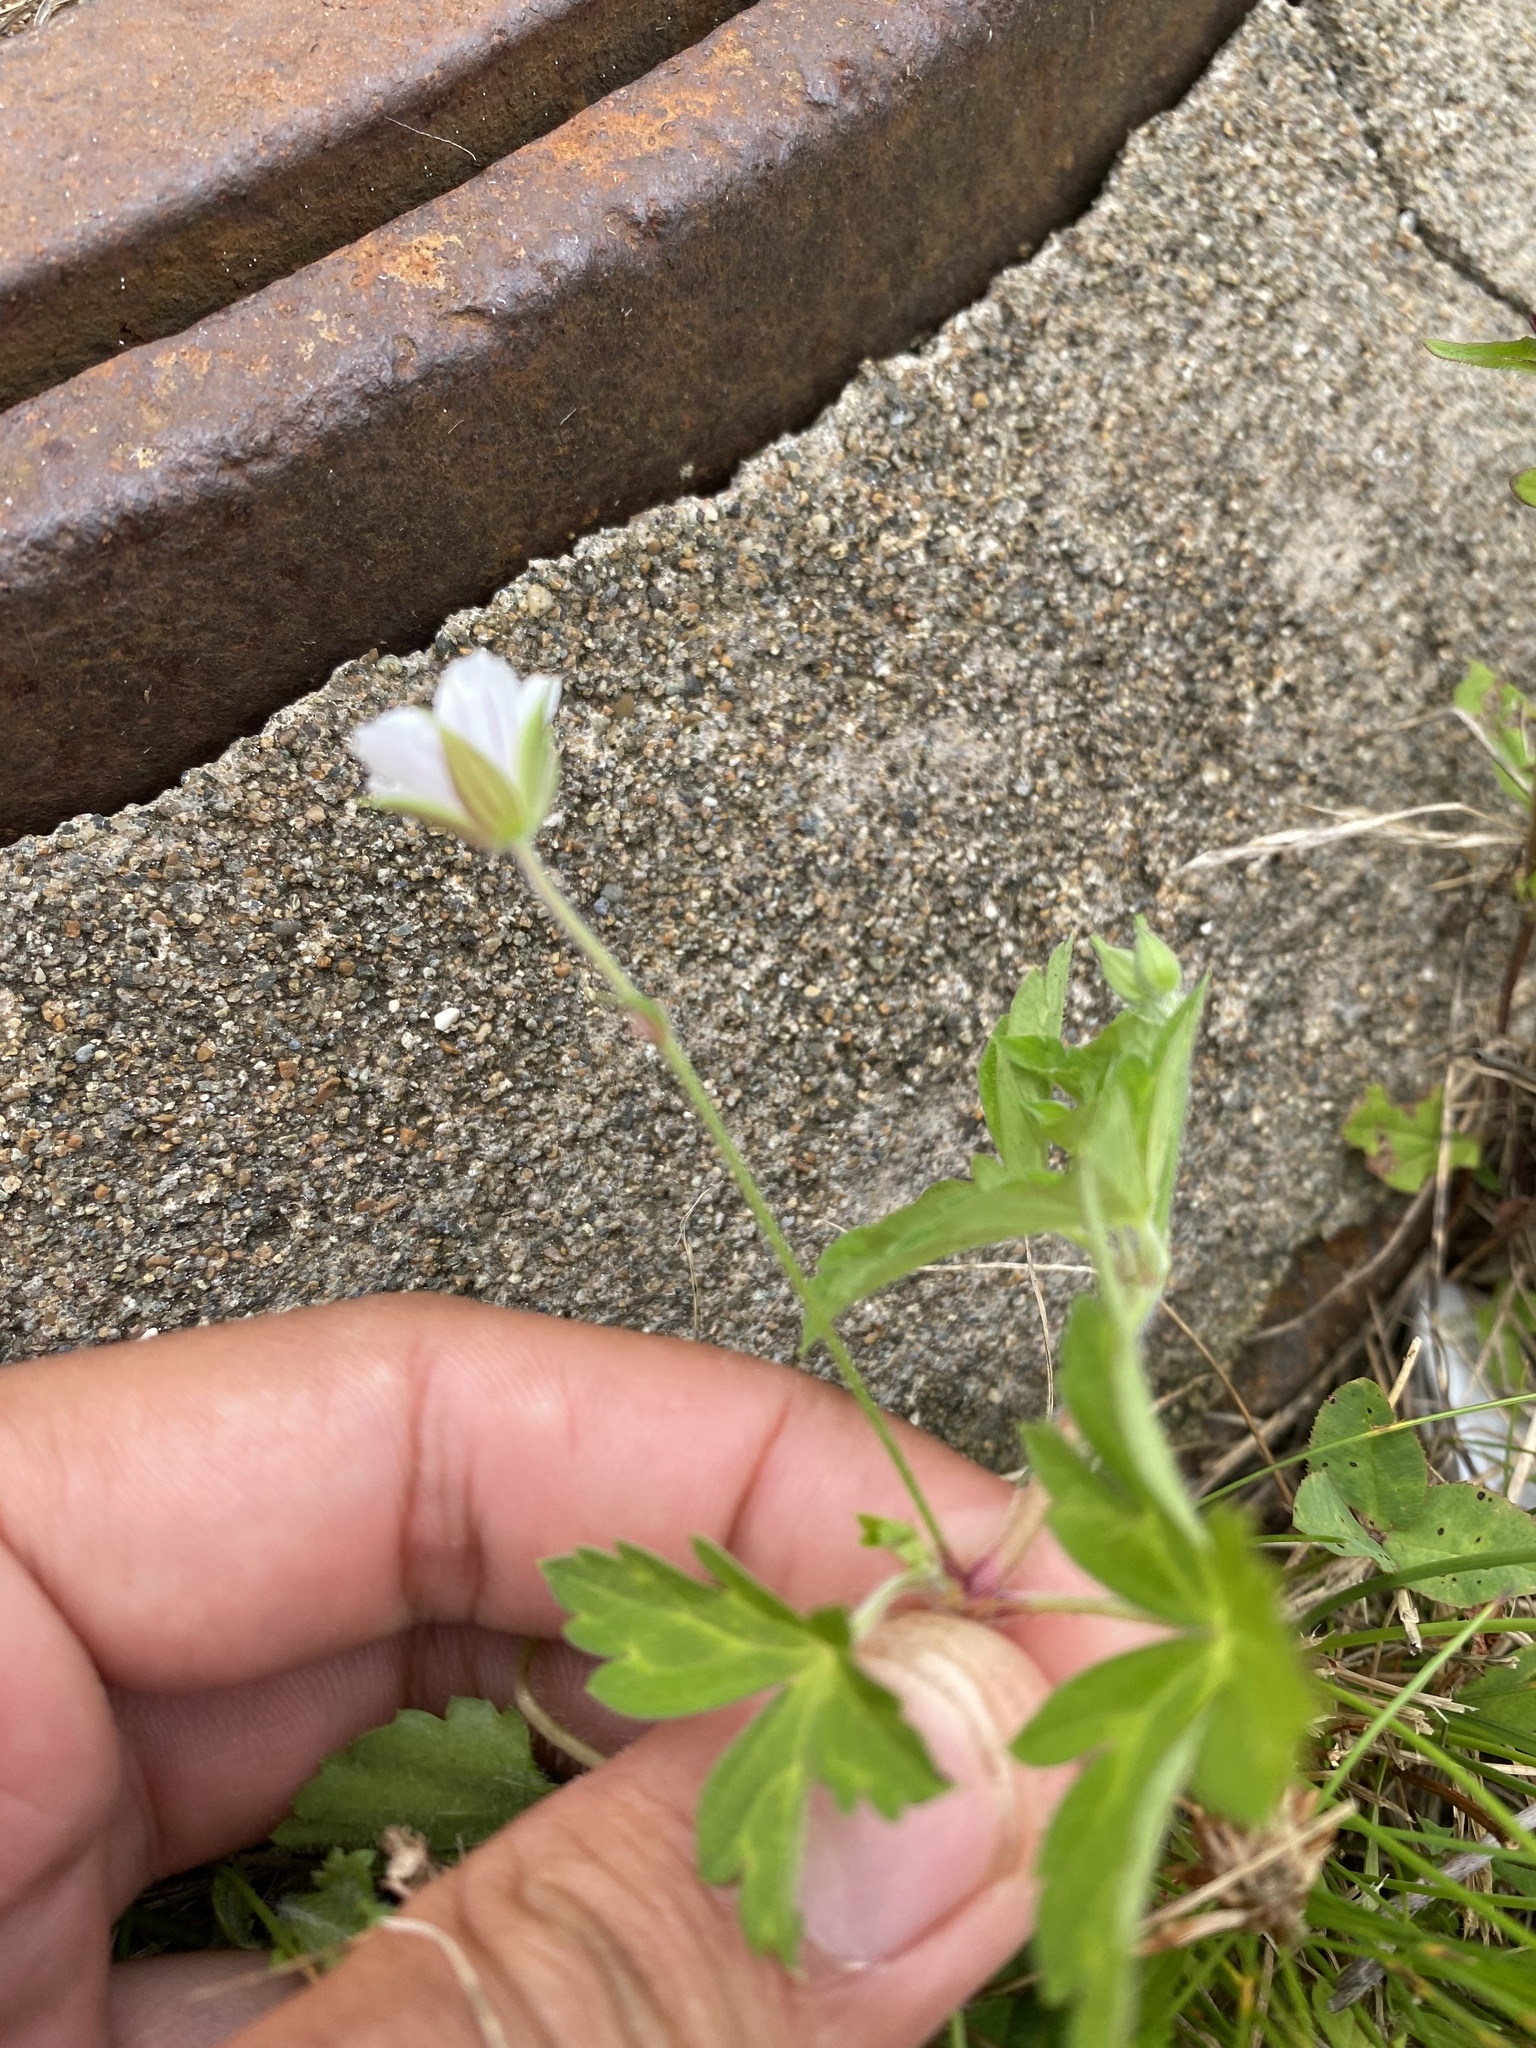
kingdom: Plantae
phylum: Tracheophyta
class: Magnoliopsida
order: Geraniales
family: Geraniaceae
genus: Geranium
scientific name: Geranium sibiricum
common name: Siberian crane's-bill
